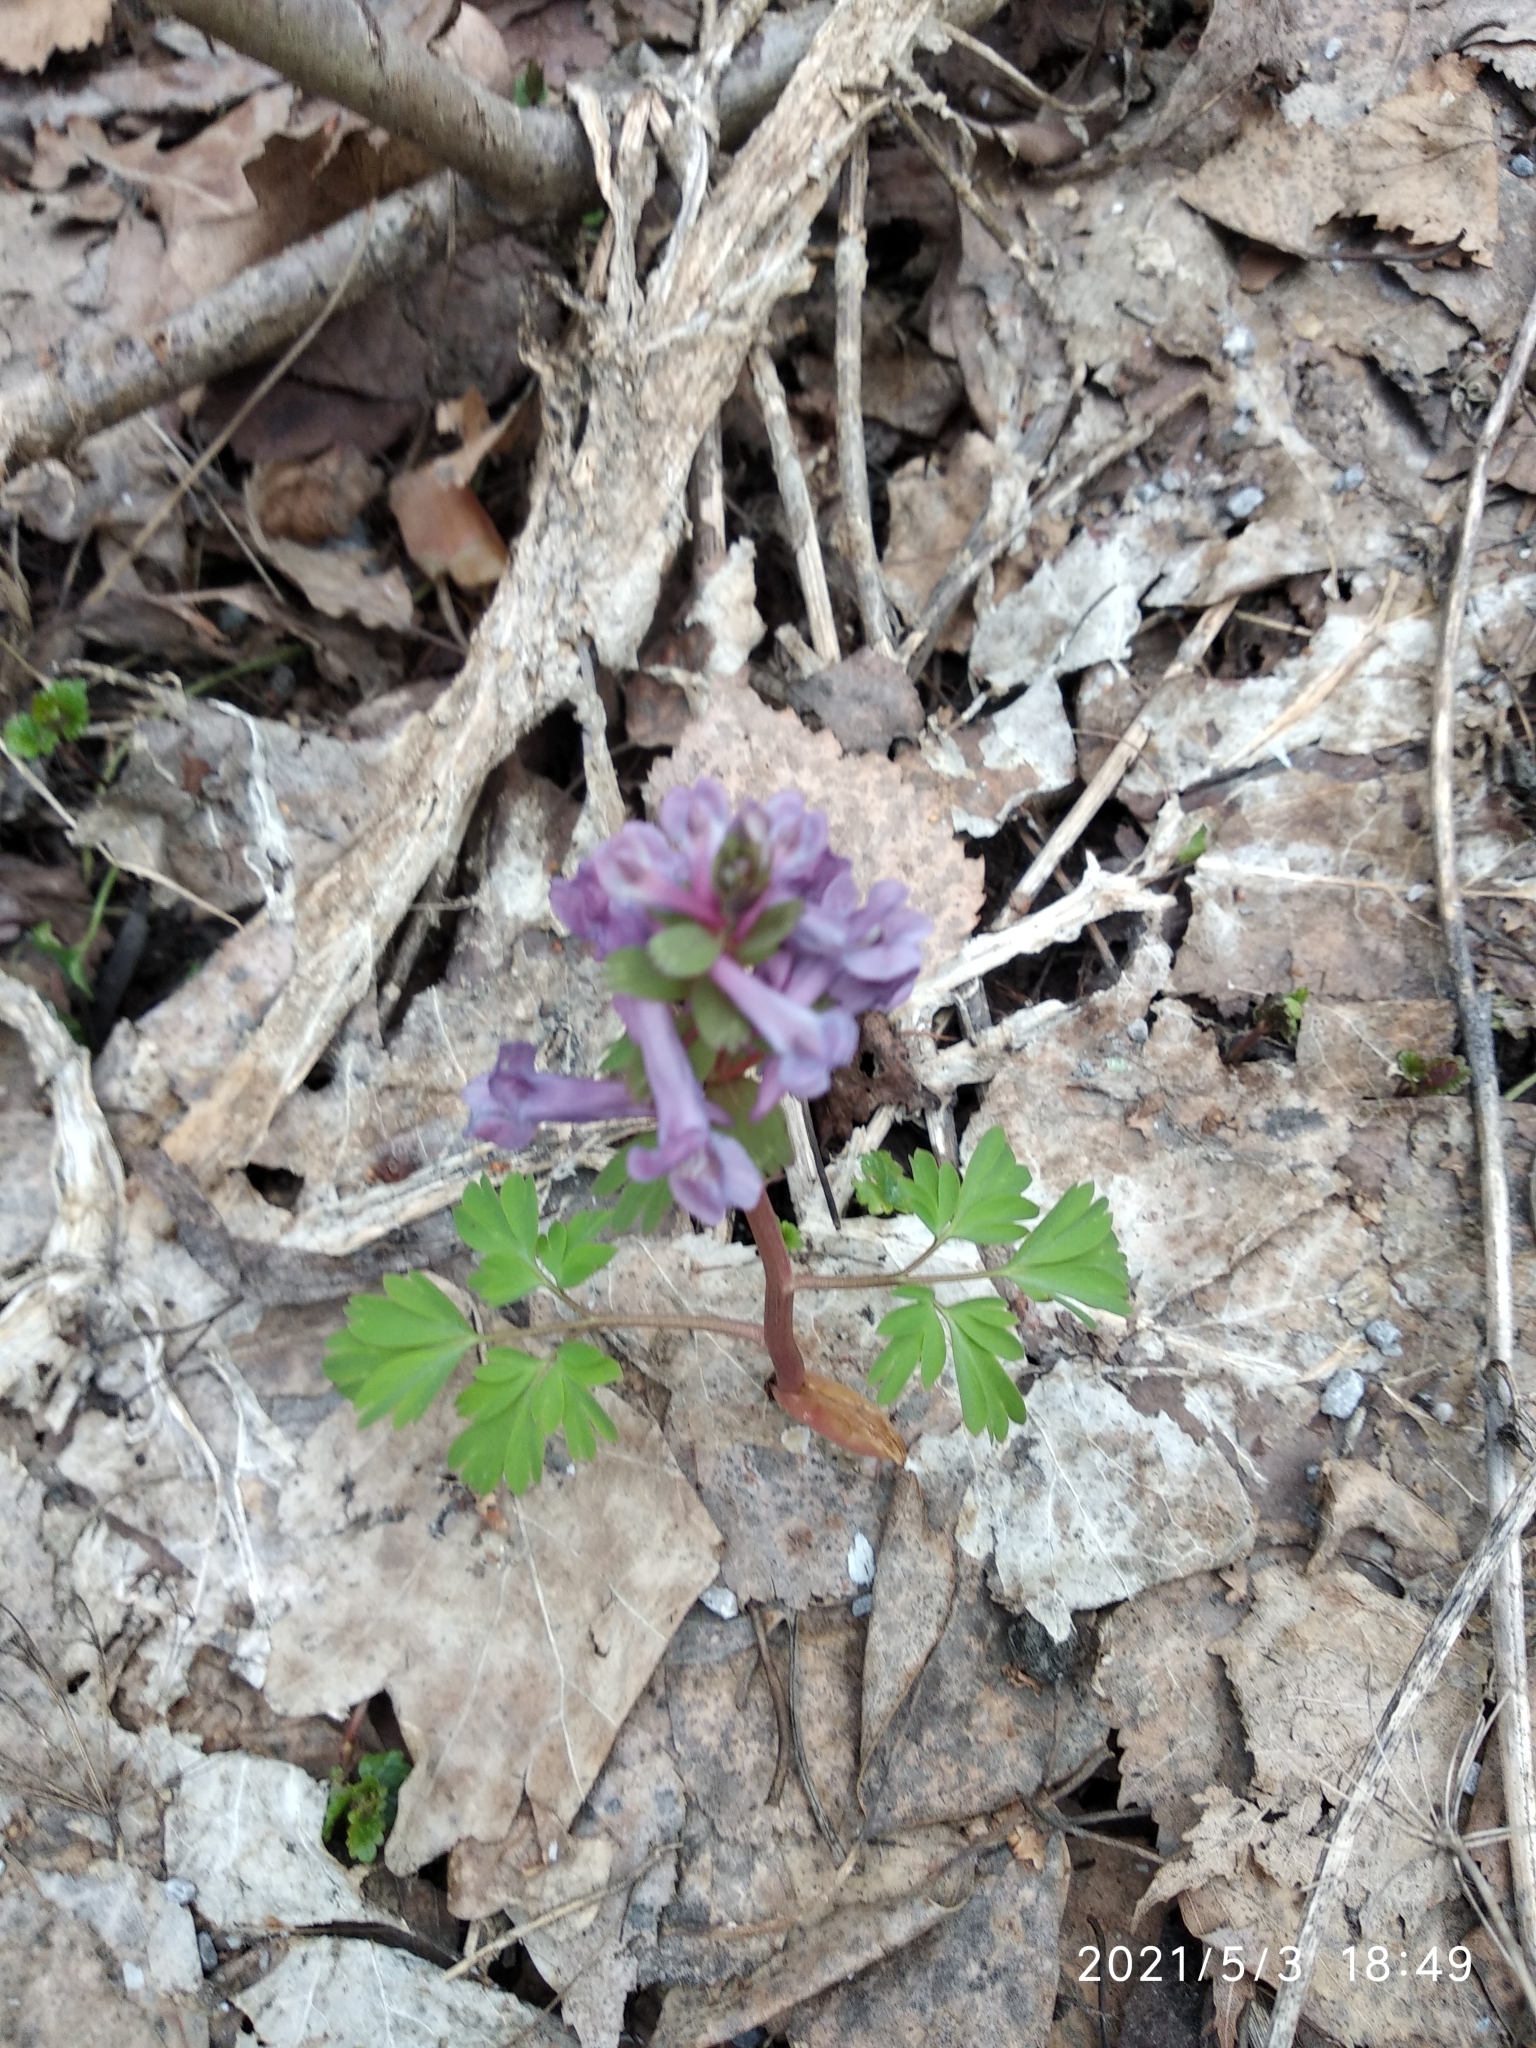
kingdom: Plantae
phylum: Tracheophyta
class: Magnoliopsida
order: Ranunculales
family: Papaveraceae
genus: Corydalis
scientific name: Corydalis solida
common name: Bird-in-a-bush
